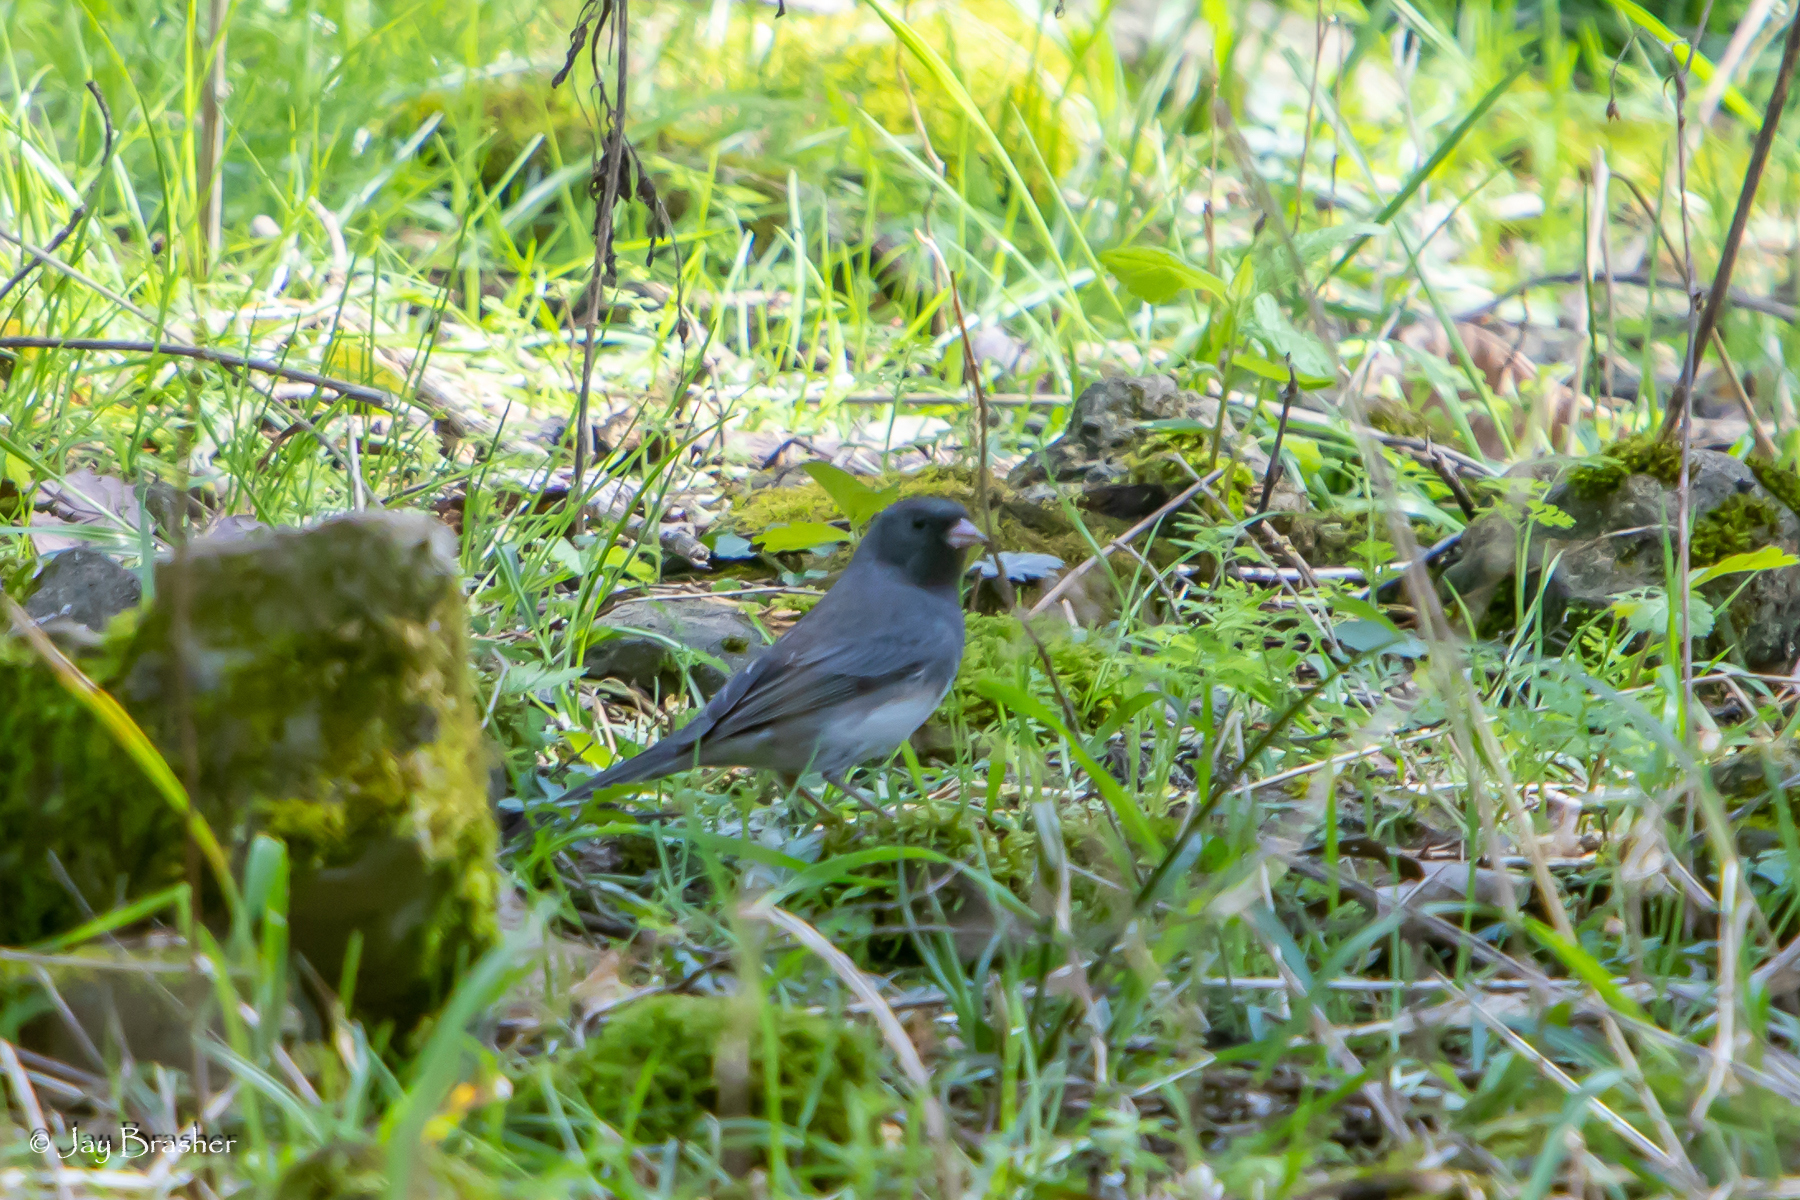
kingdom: Animalia
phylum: Chordata
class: Aves
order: Passeriformes
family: Passerellidae
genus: Junco
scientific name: Junco hyemalis
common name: Dark-eyed junco
